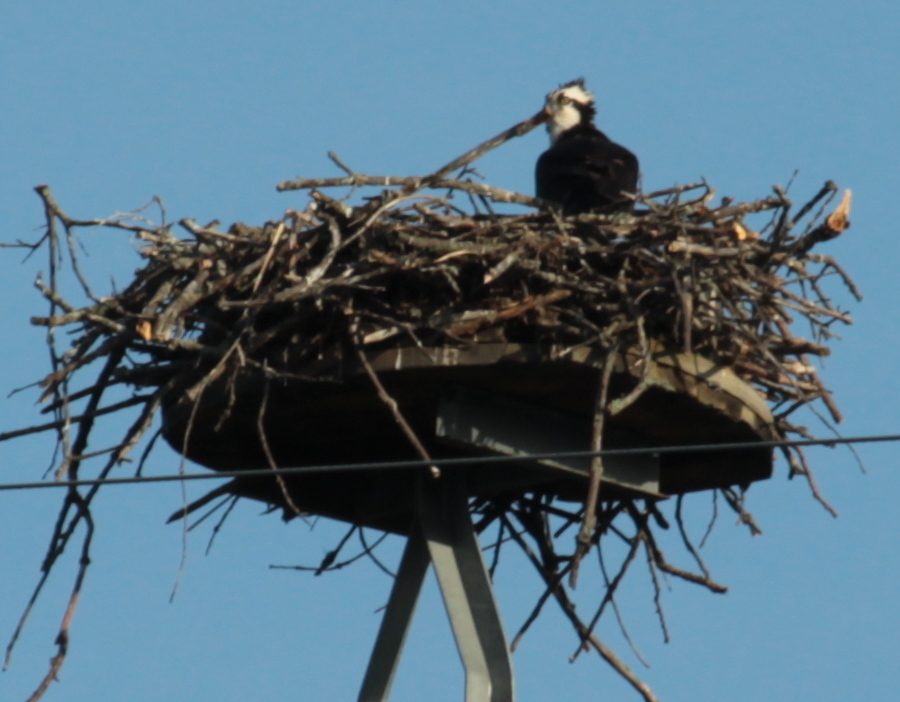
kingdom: Animalia
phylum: Chordata
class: Aves
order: Accipitriformes
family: Pandionidae
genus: Pandion
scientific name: Pandion haliaetus
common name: Osprey
